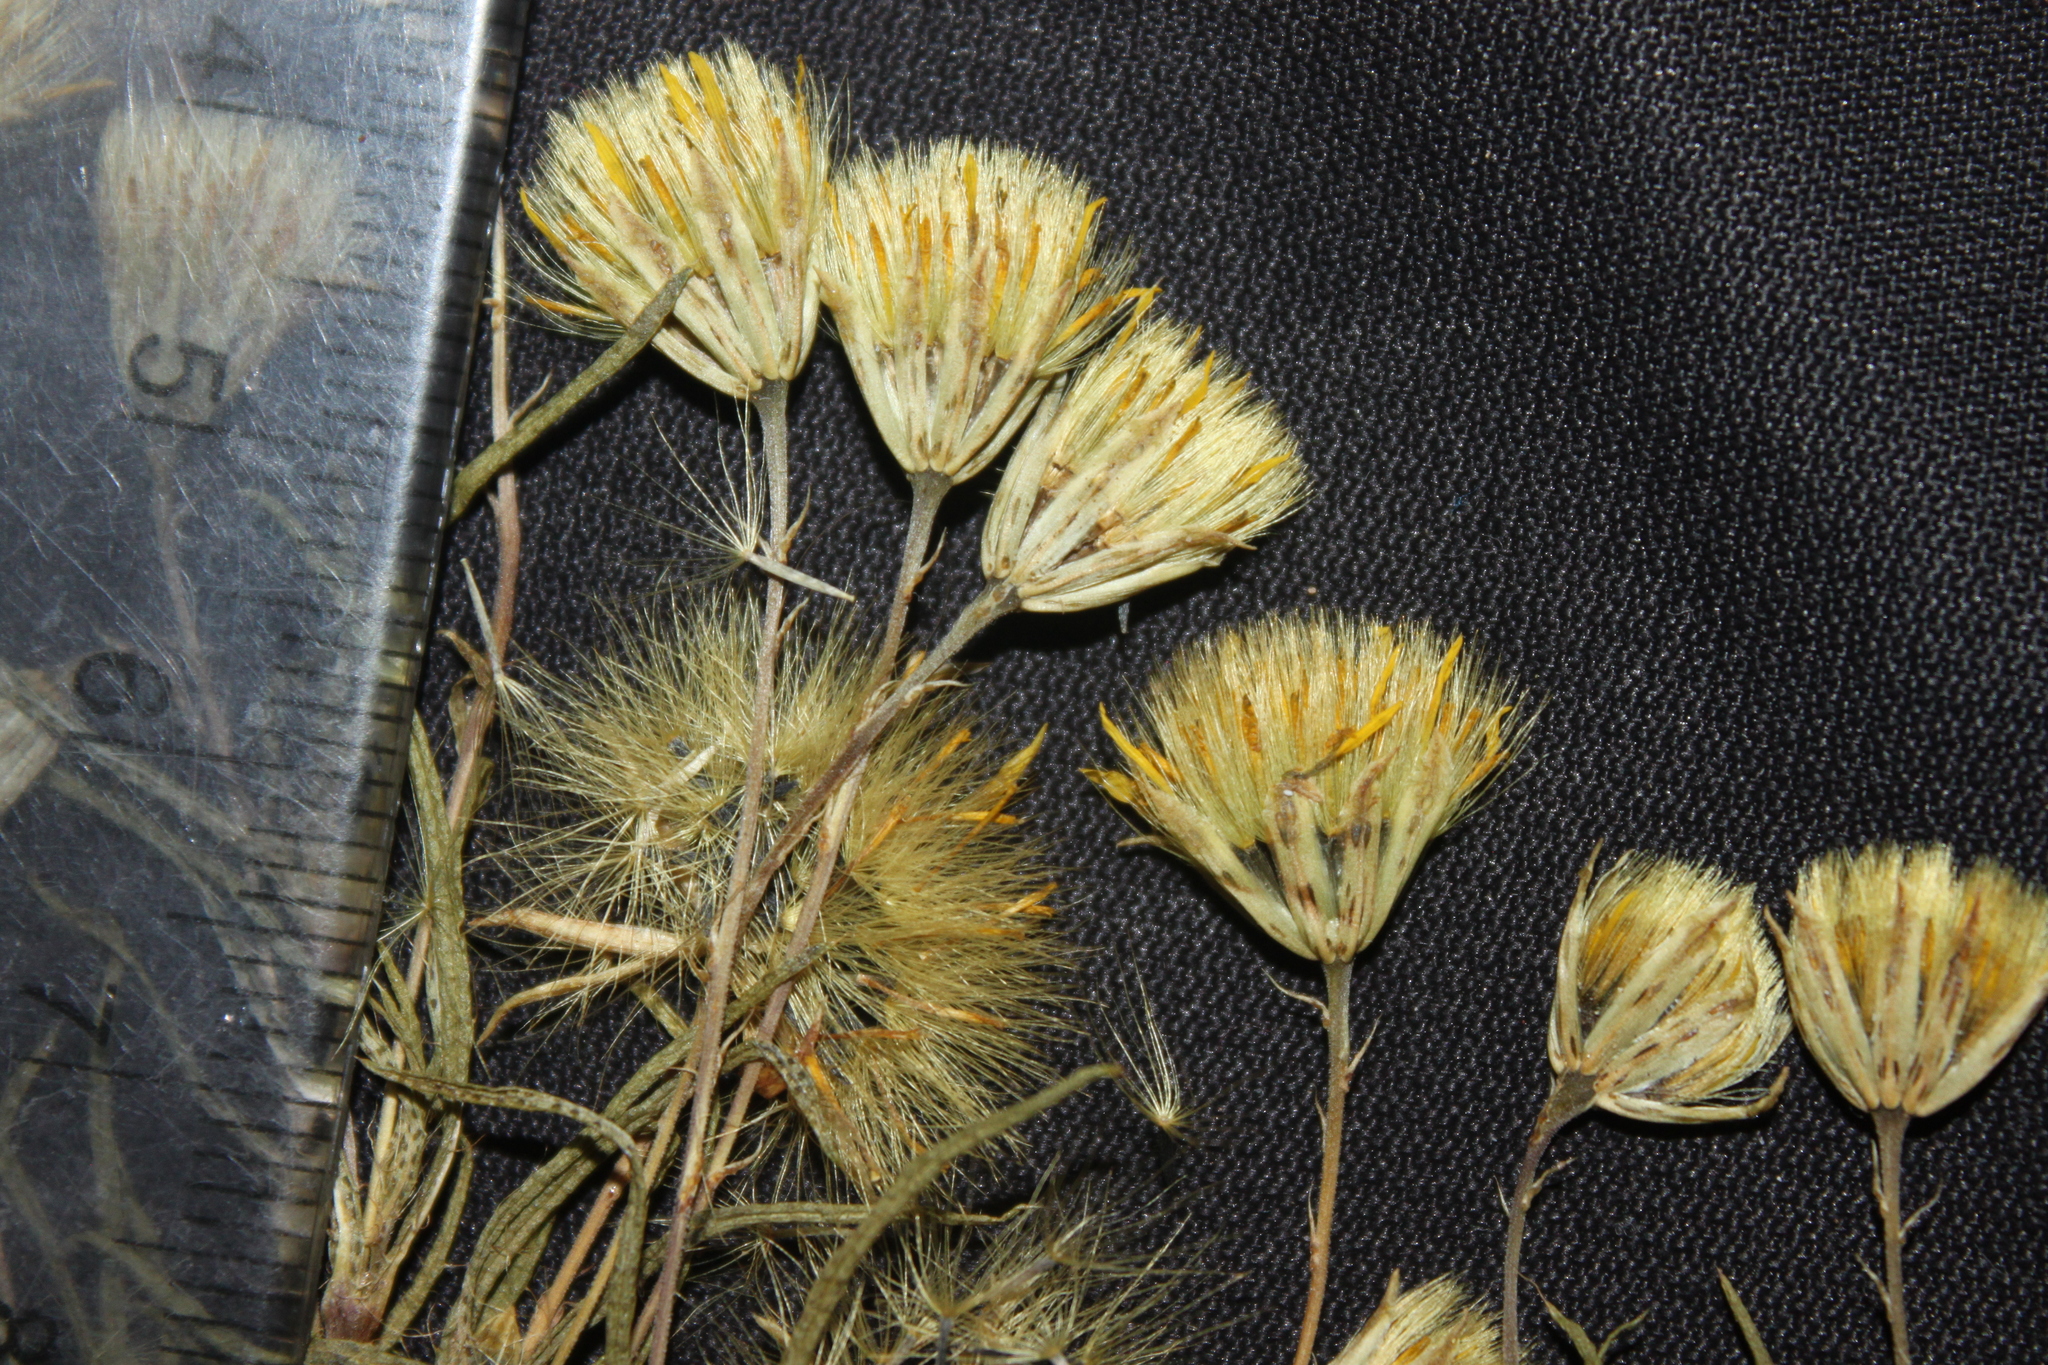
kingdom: Plantae
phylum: Tracheophyta
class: Magnoliopsida
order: Asterales
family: Asteraceae
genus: Pectis
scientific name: Pectis odorata
